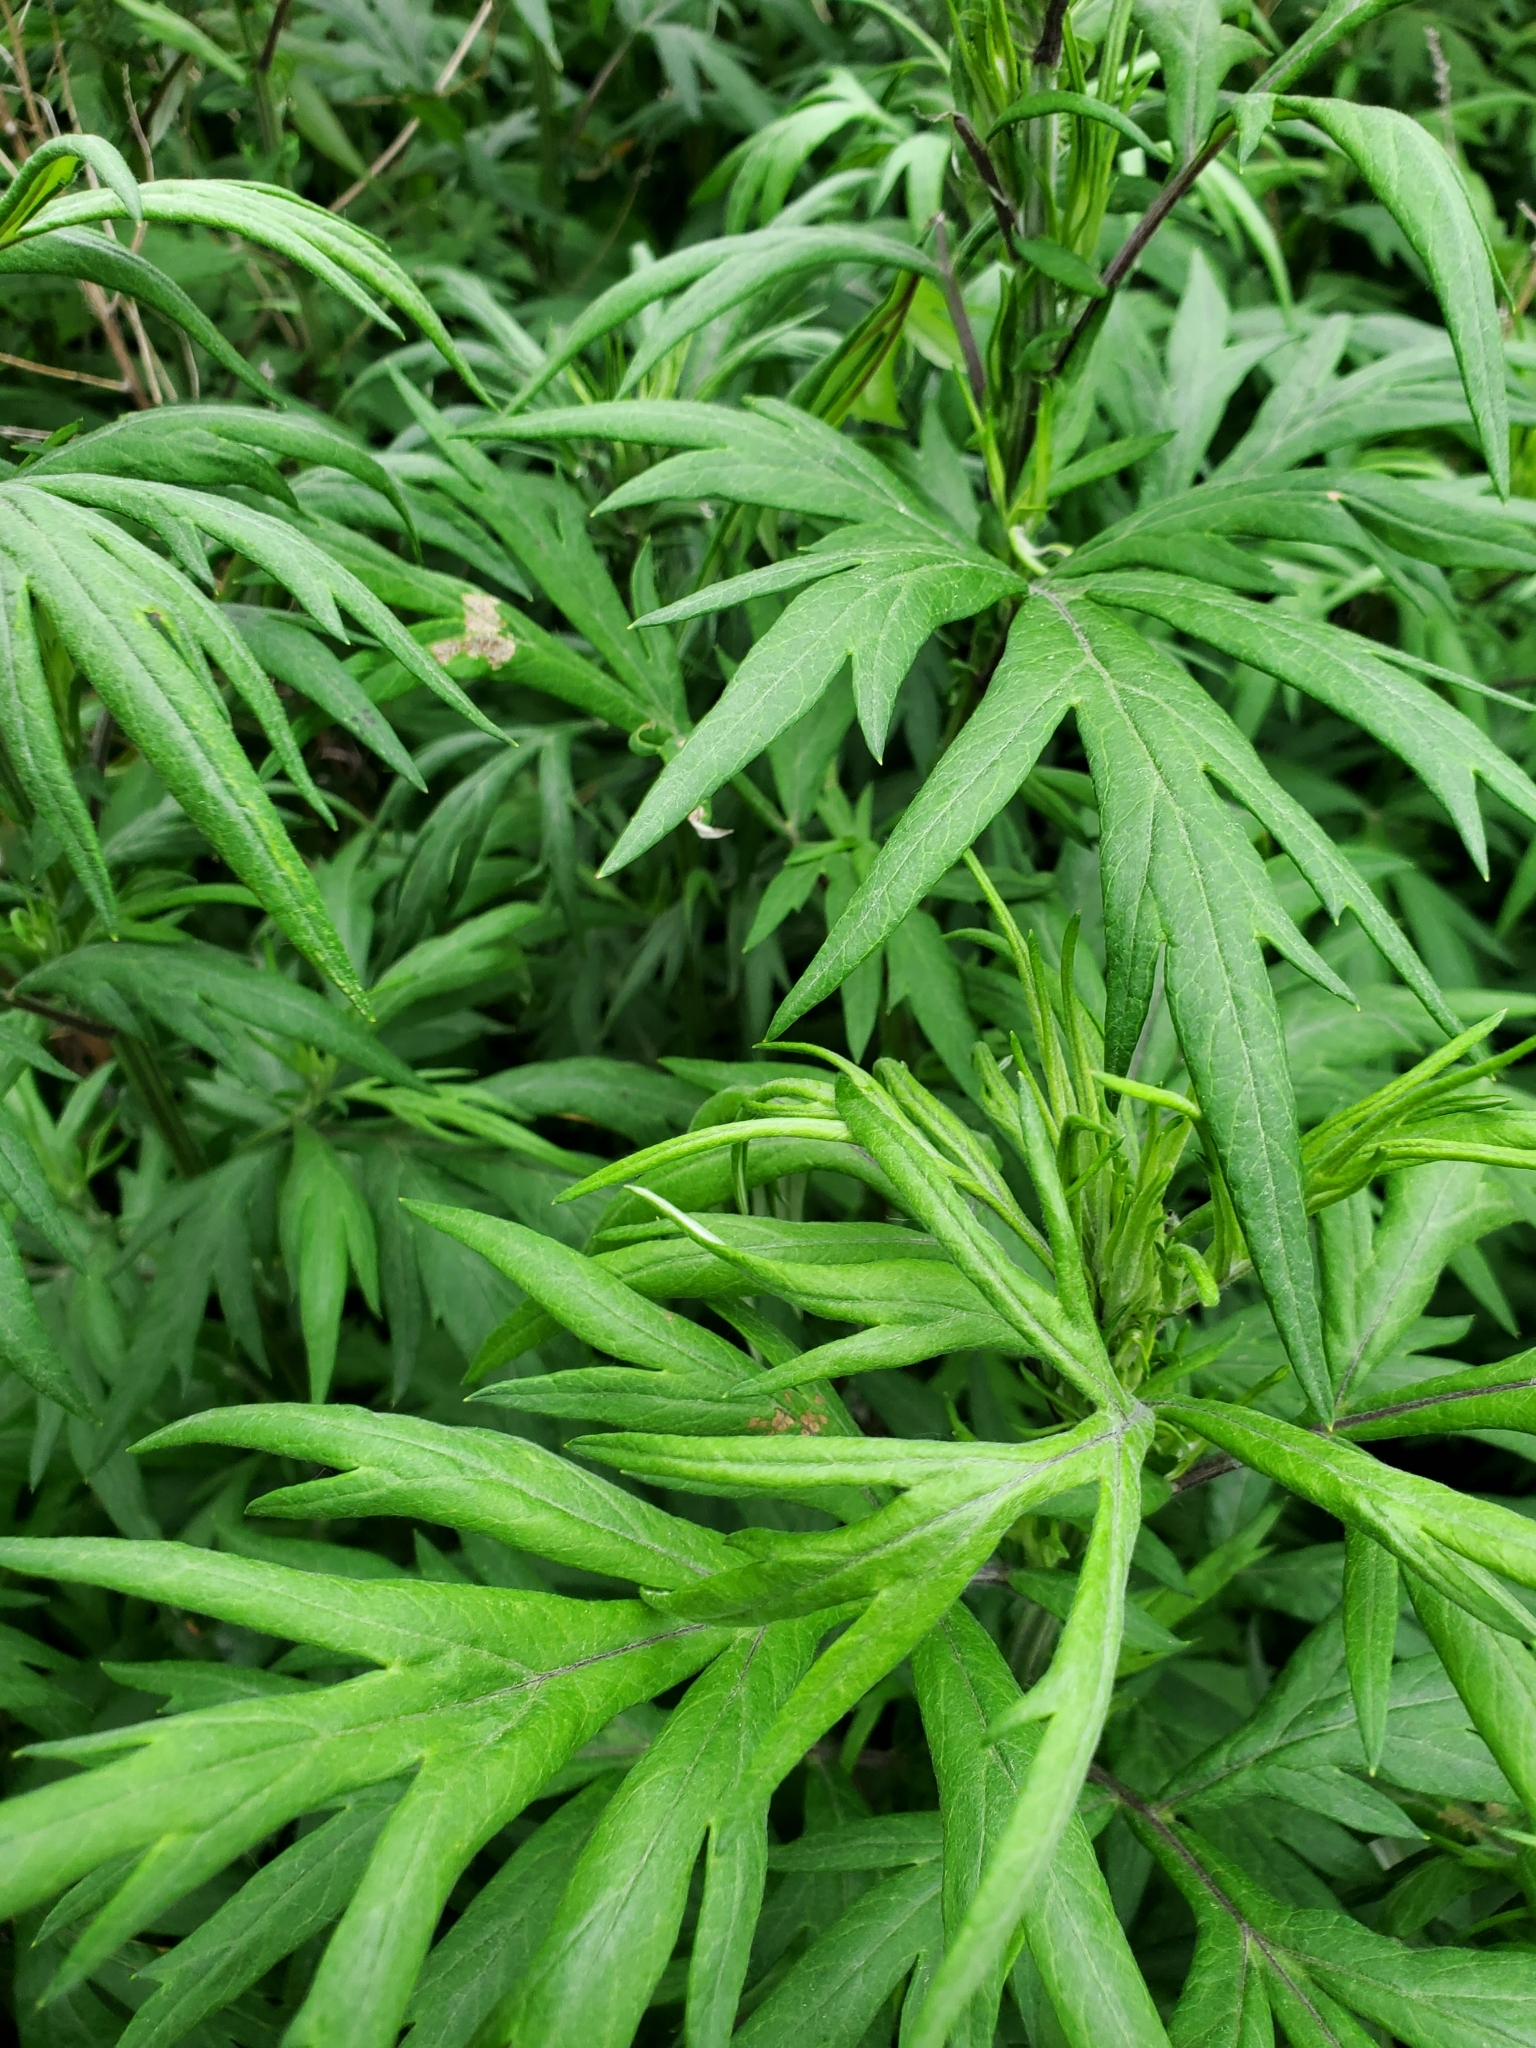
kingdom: Plantae
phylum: Tracheophyta
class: Magnoliopsida
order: Asterales
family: Asteraceae
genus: Artemisia
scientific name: Artemisia vulgaris
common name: Mugwort
